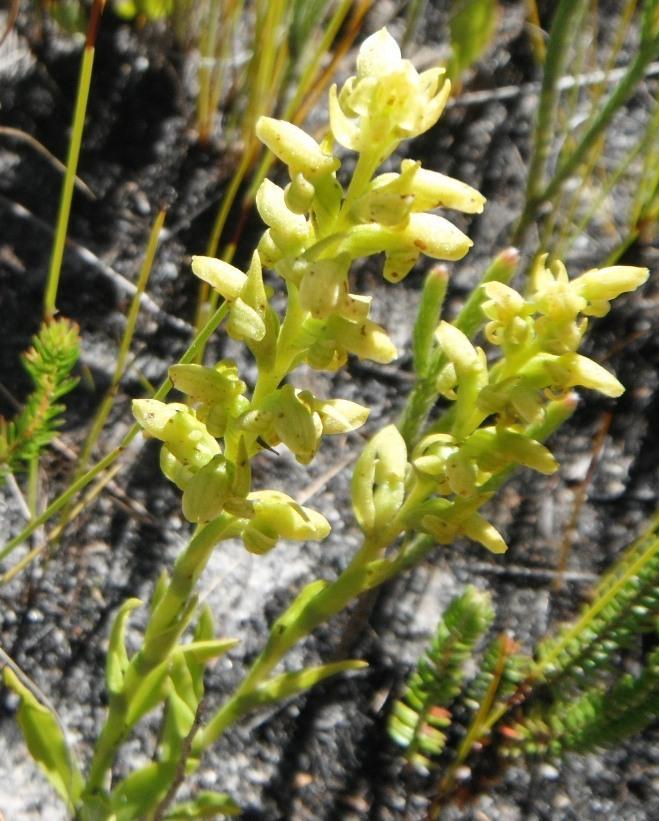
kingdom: Plantae
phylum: Tracheophyta
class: Liliopsida
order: Asparagales
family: Orchidaceae
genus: Disa
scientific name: Disa cylindrica
